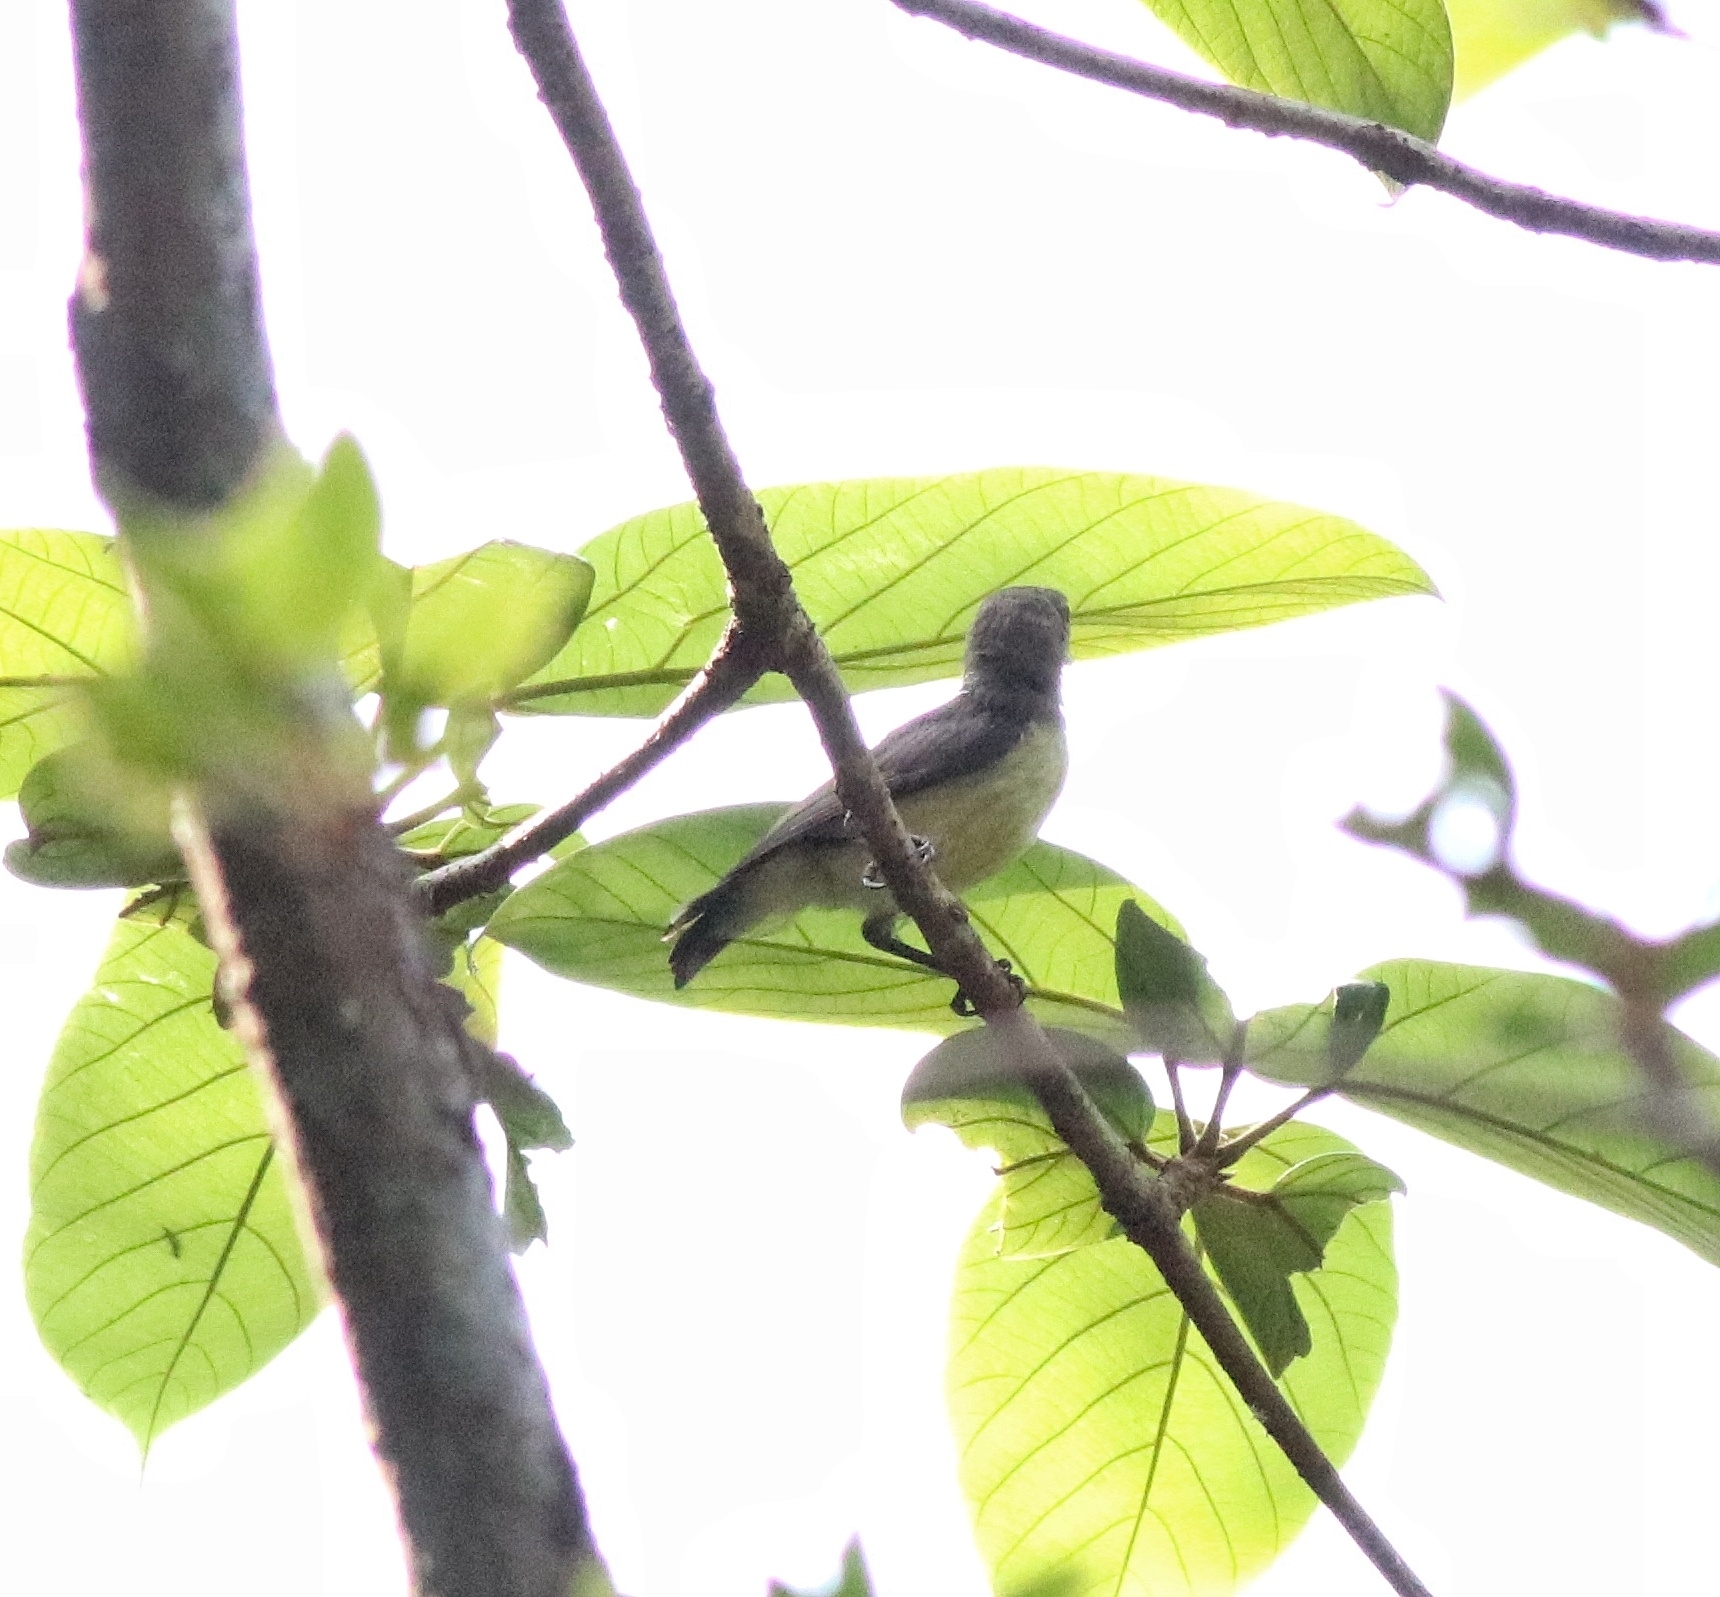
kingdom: Animalia
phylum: Chordata
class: Aves
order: Passeriformes
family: Nectariniidae
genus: Leptocoma
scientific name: Leptocoma zeylonica
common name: Purple-rumped sunbird
